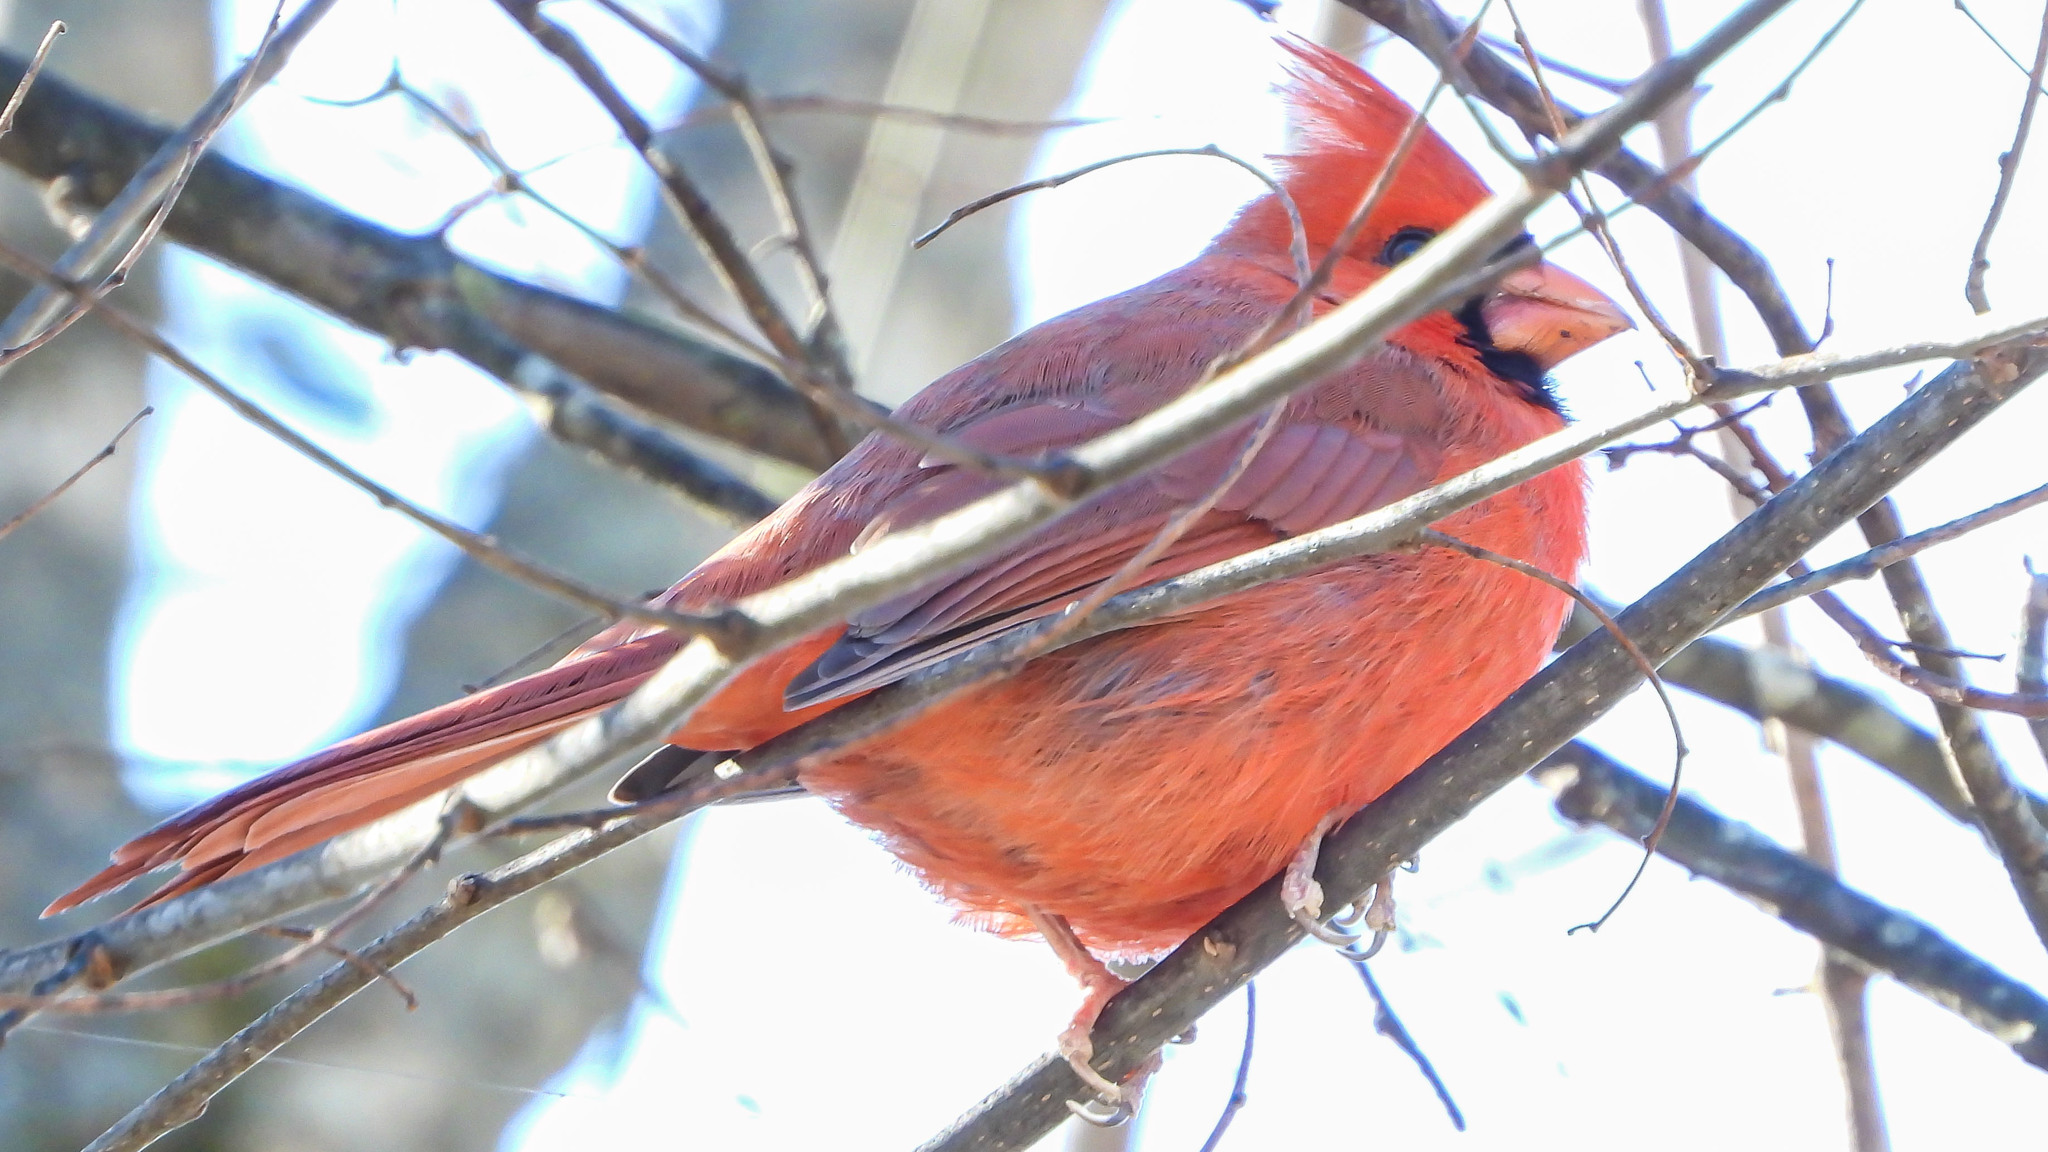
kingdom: Animalia
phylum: Chordata
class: Aves
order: Passeriformes
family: Cardinalidae
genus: Cardinalis
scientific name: Cardinalis cardinalis
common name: Northern cardinal
